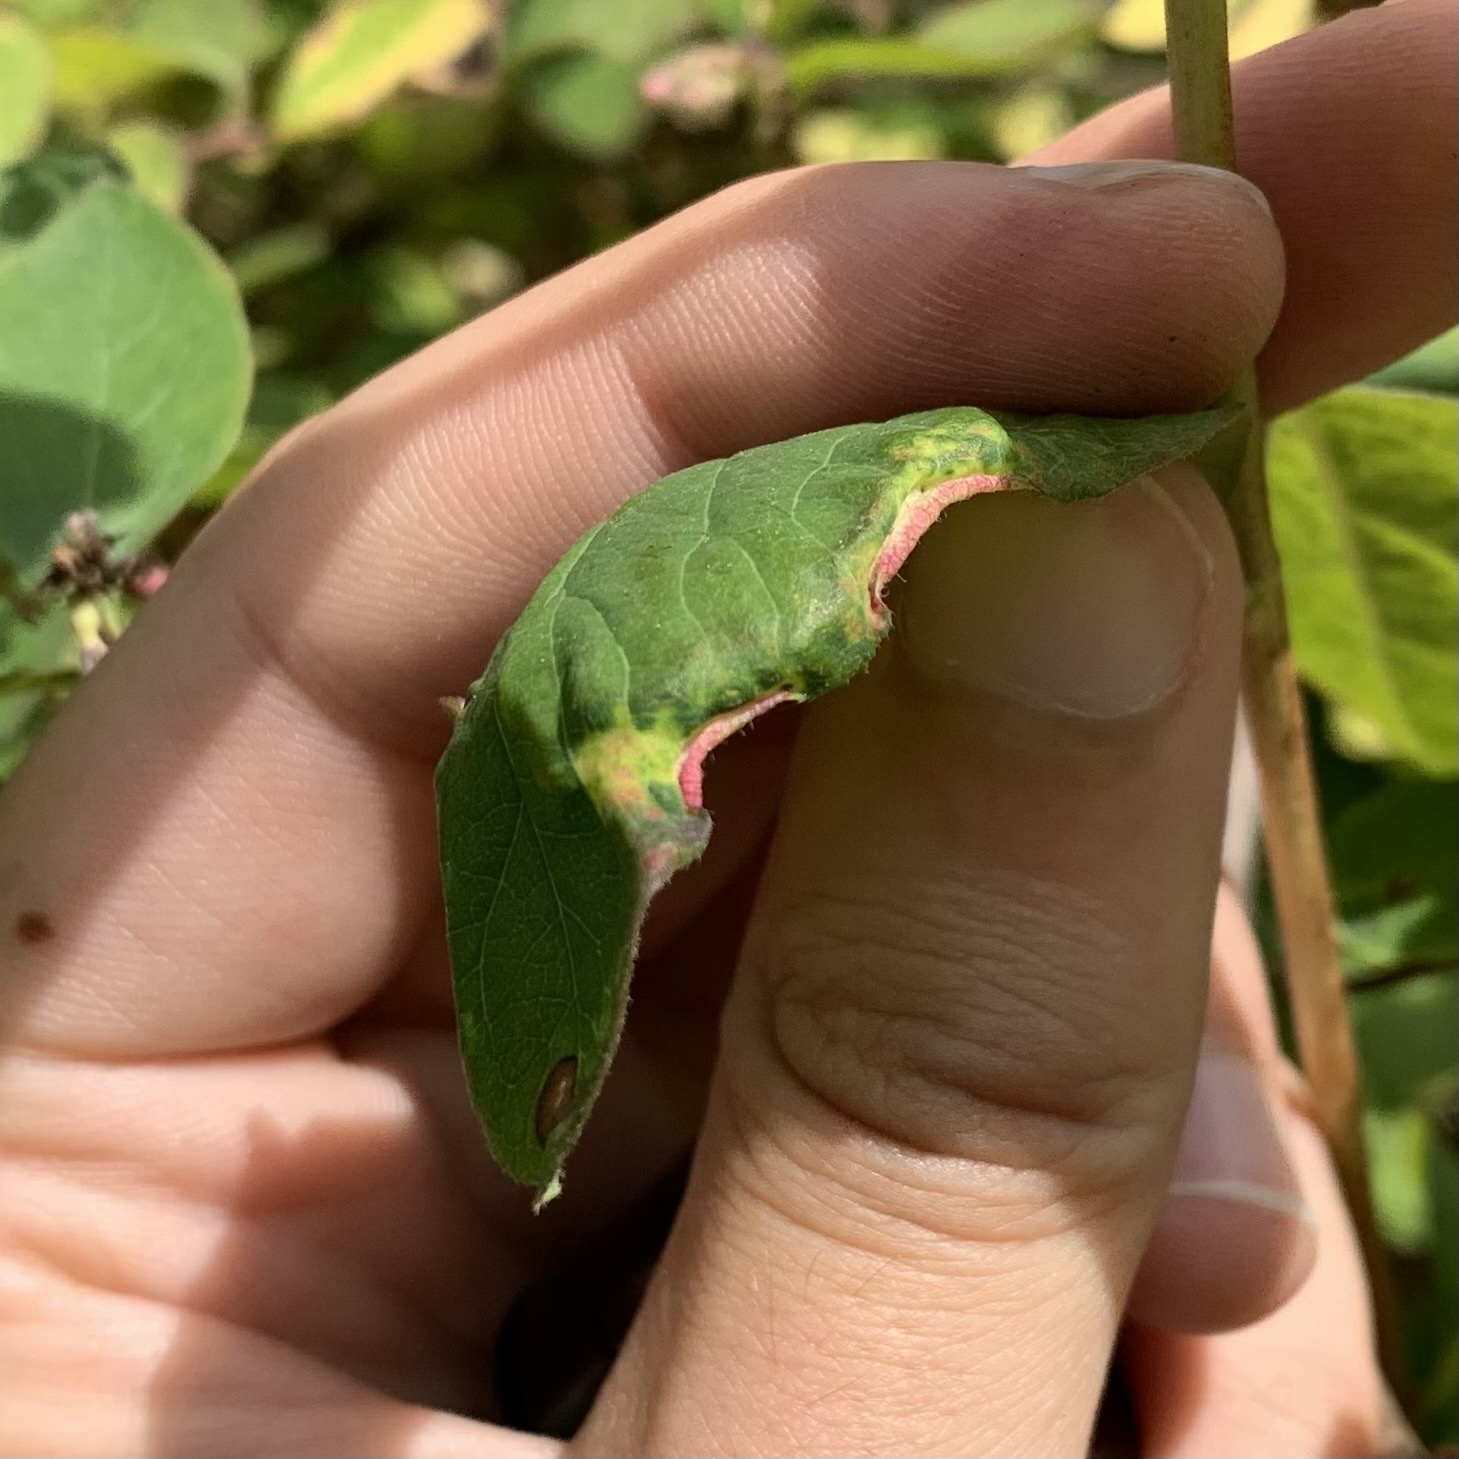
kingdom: Animalia
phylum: Arthropoda
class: Arachnida
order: Trombidiformes
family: Eriophyidae
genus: Phyllocoptes
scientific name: Phyllocoptes
